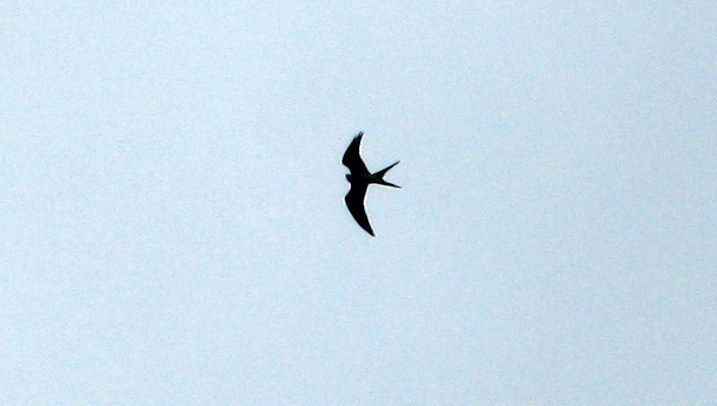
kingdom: Animalia
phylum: Chordata
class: Aves
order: Accipitriformes
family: Accipitridae
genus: Elanoides
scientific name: Elanoides forficatus
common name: Swallow-tailed kite
